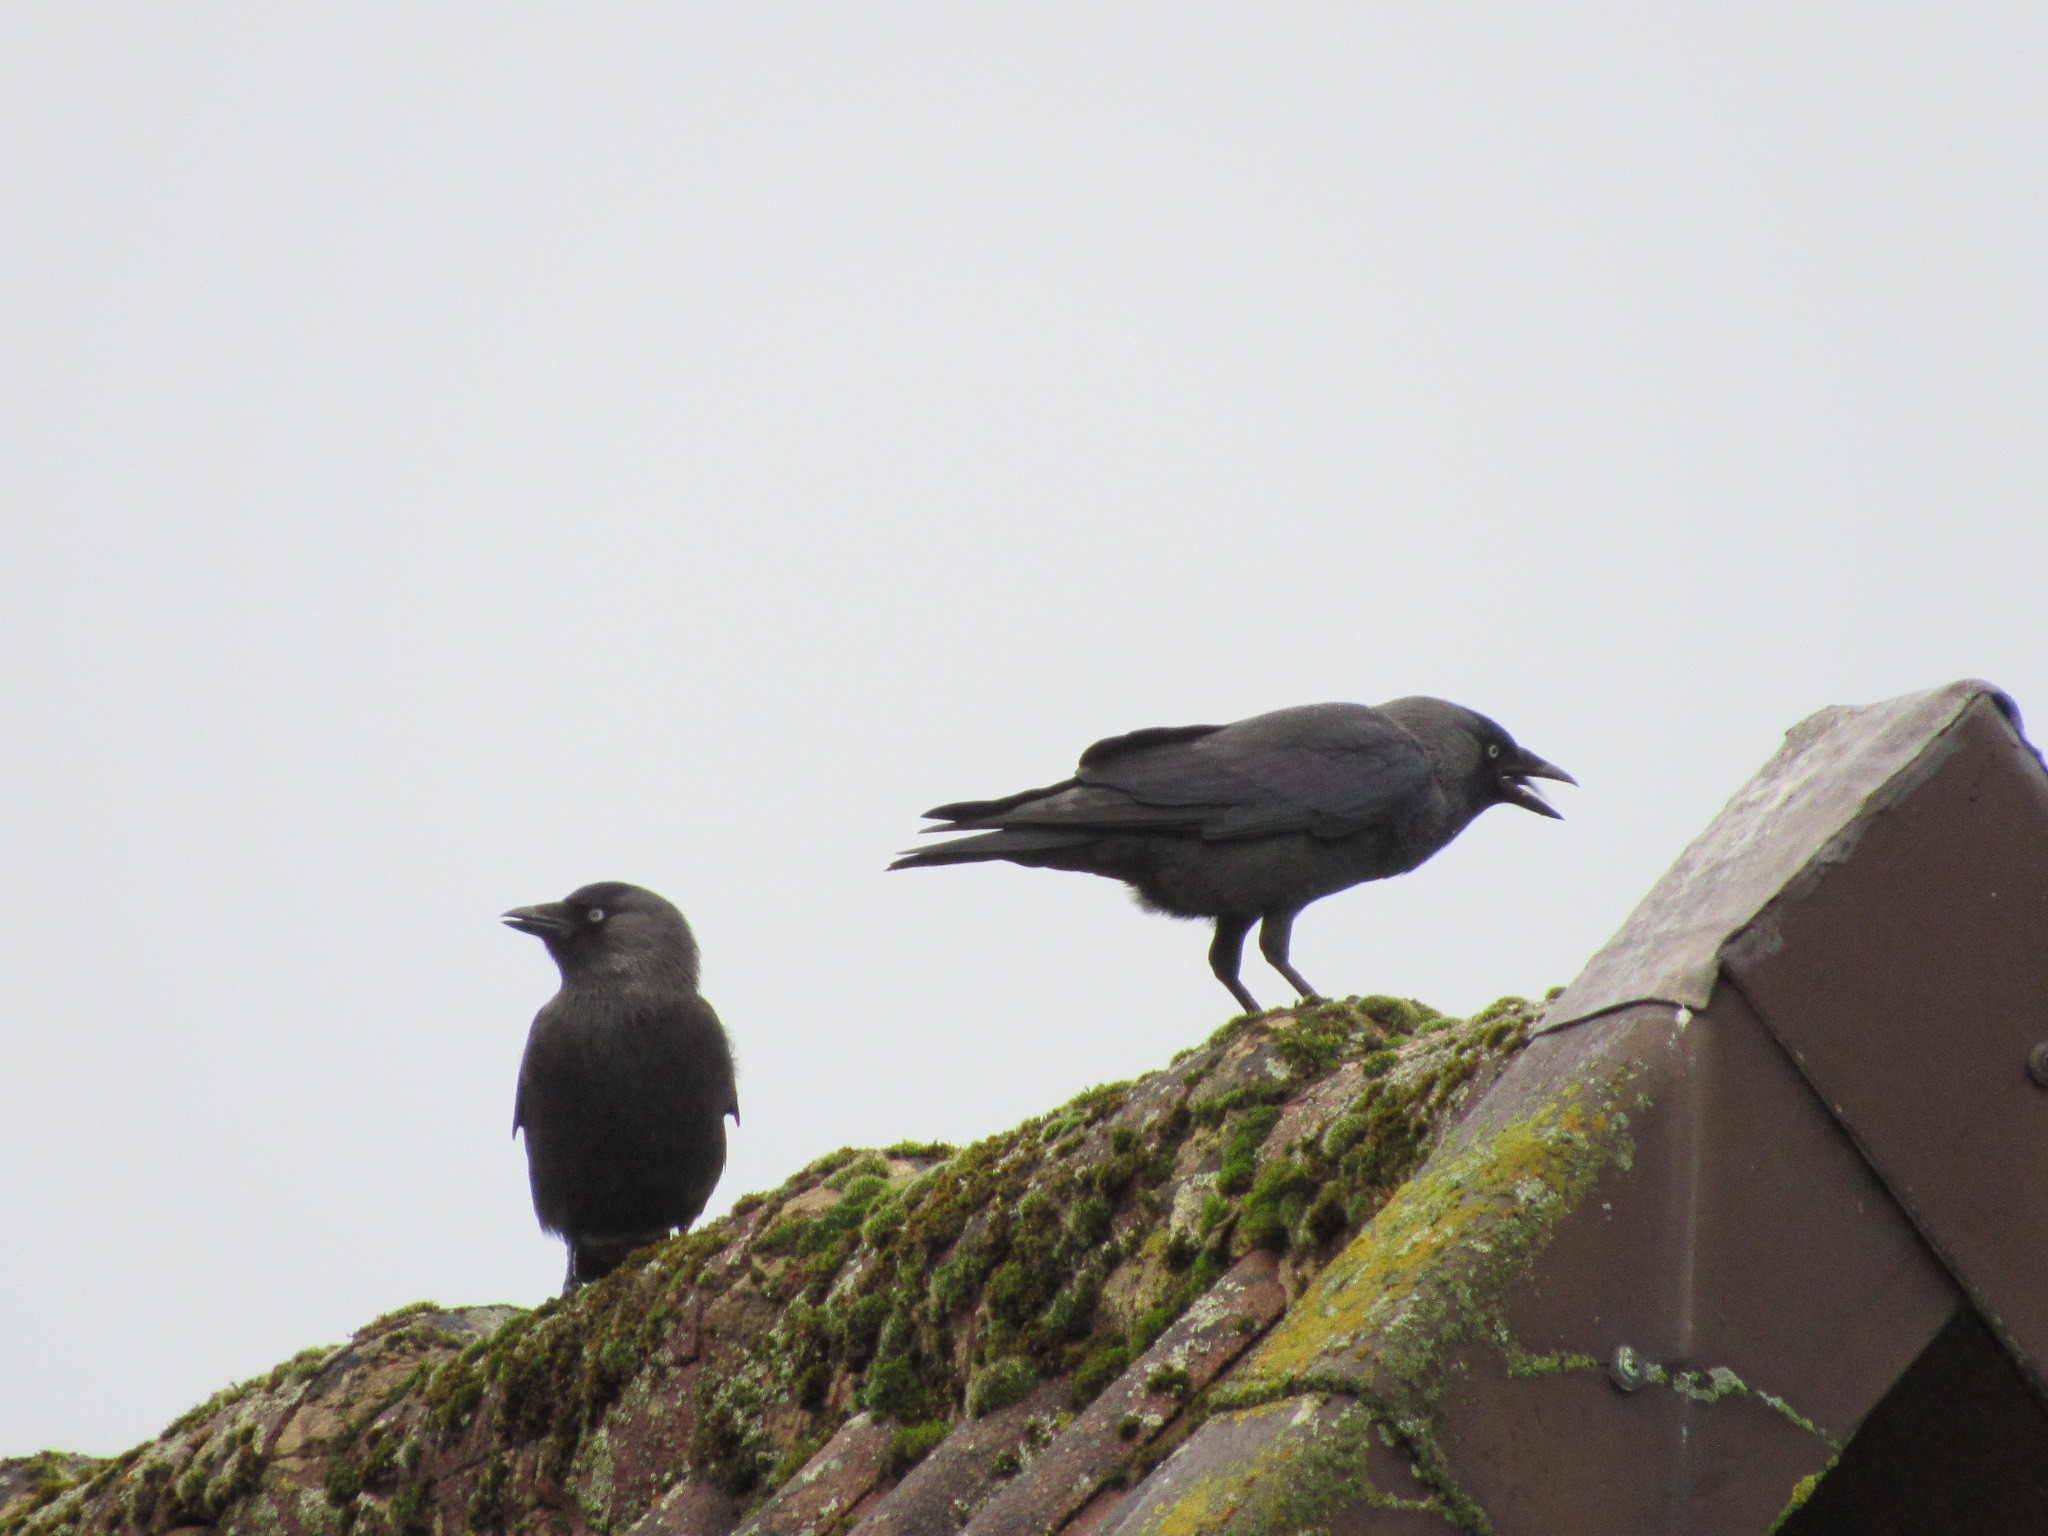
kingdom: Animalia
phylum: Chordata
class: Aves
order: Passeriformes
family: Corvidae
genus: Coloeus
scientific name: Coloeus monedula
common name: Western jackdaw
